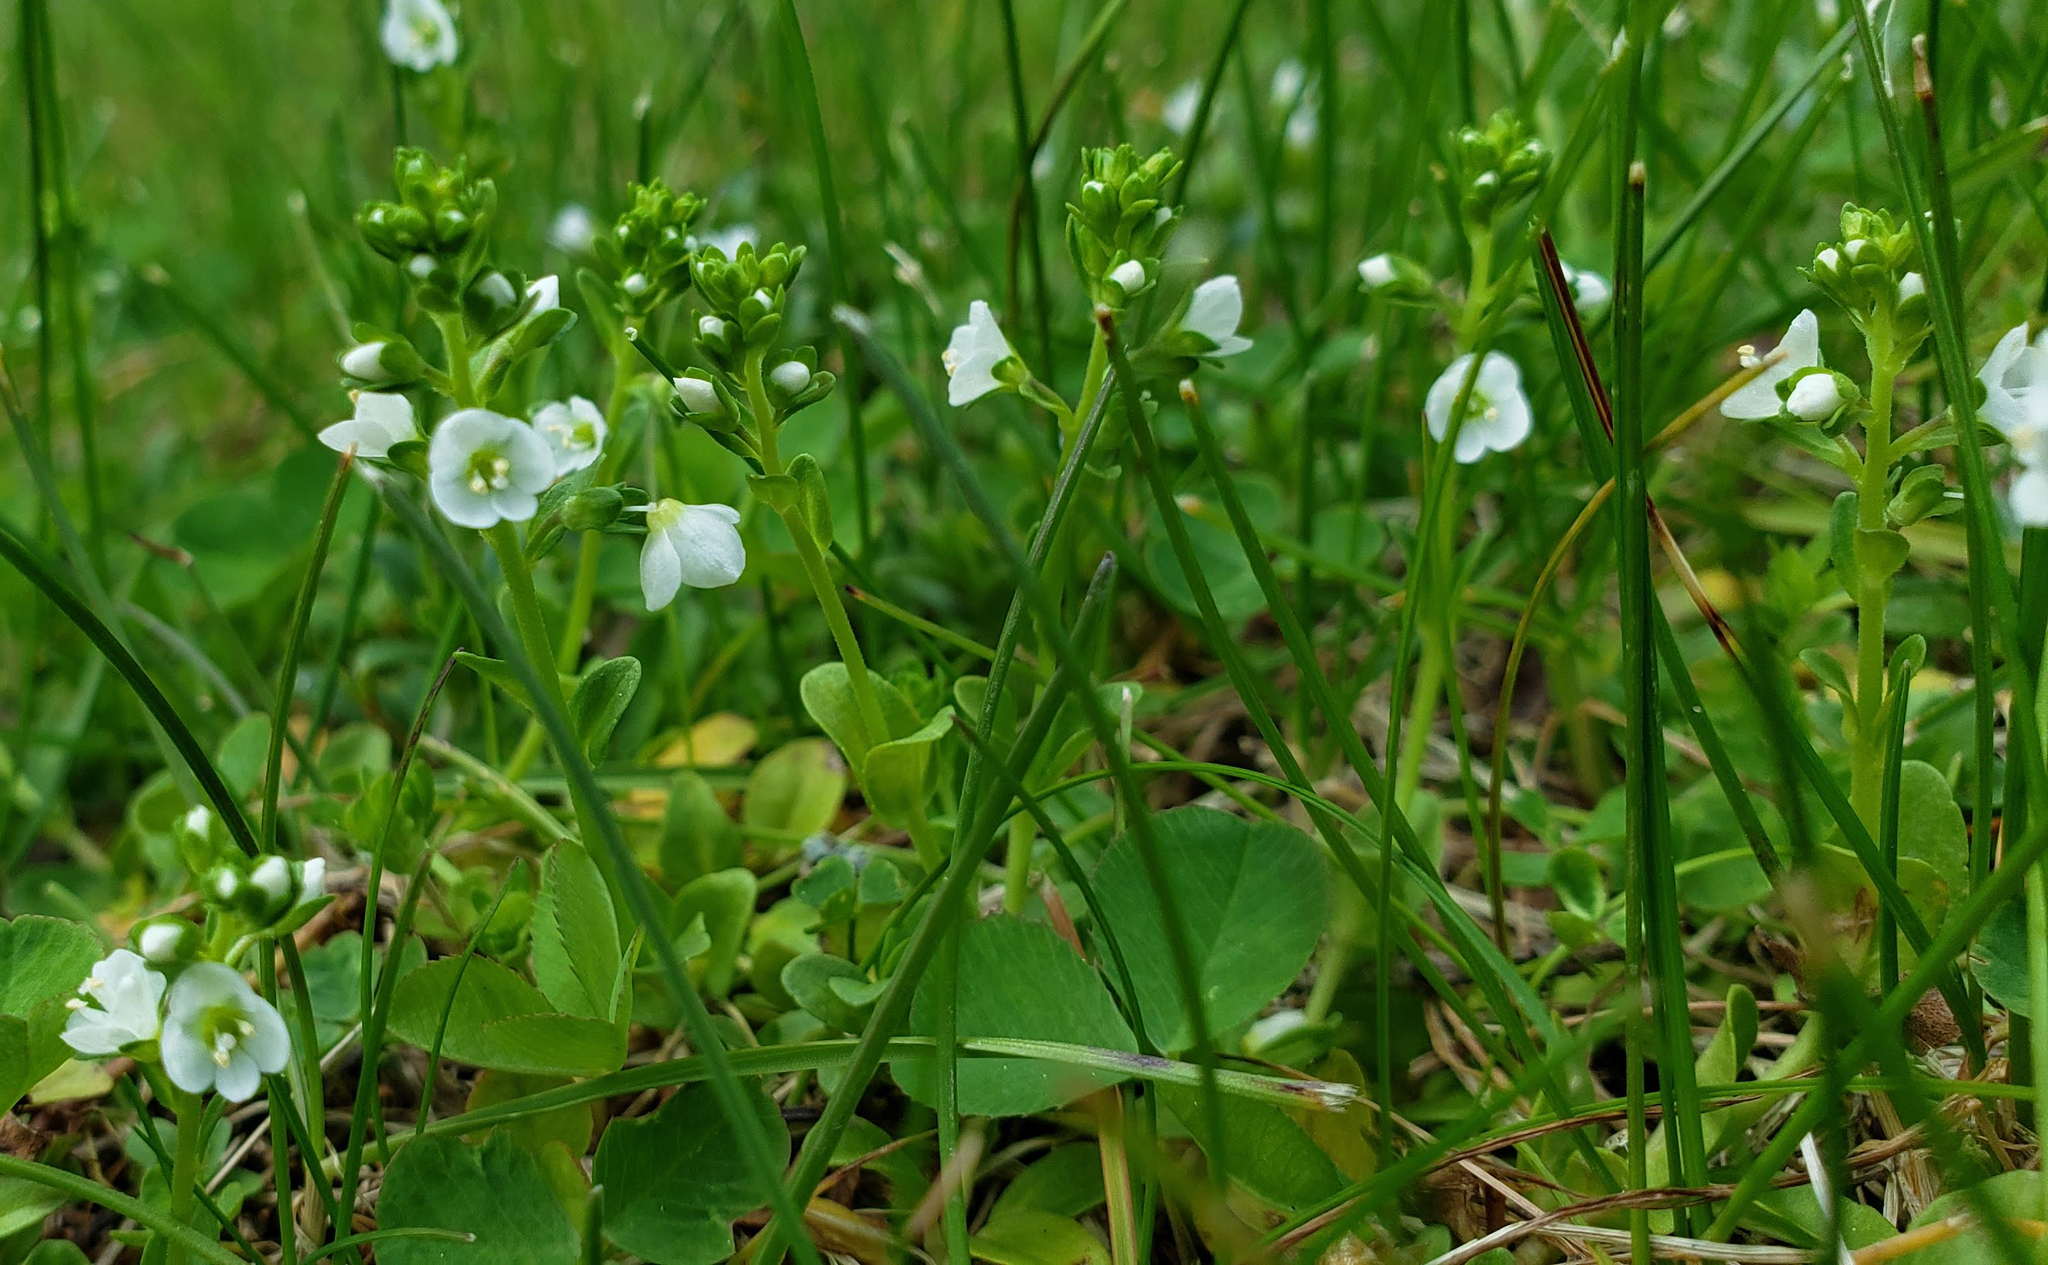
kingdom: Plantae
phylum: Tracheophyta
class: Magnoliopsida
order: Lamiales
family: Plantaginaceae
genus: Veronica
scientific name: Veronica serpyllifolia
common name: Thyme-leaved speedwell
